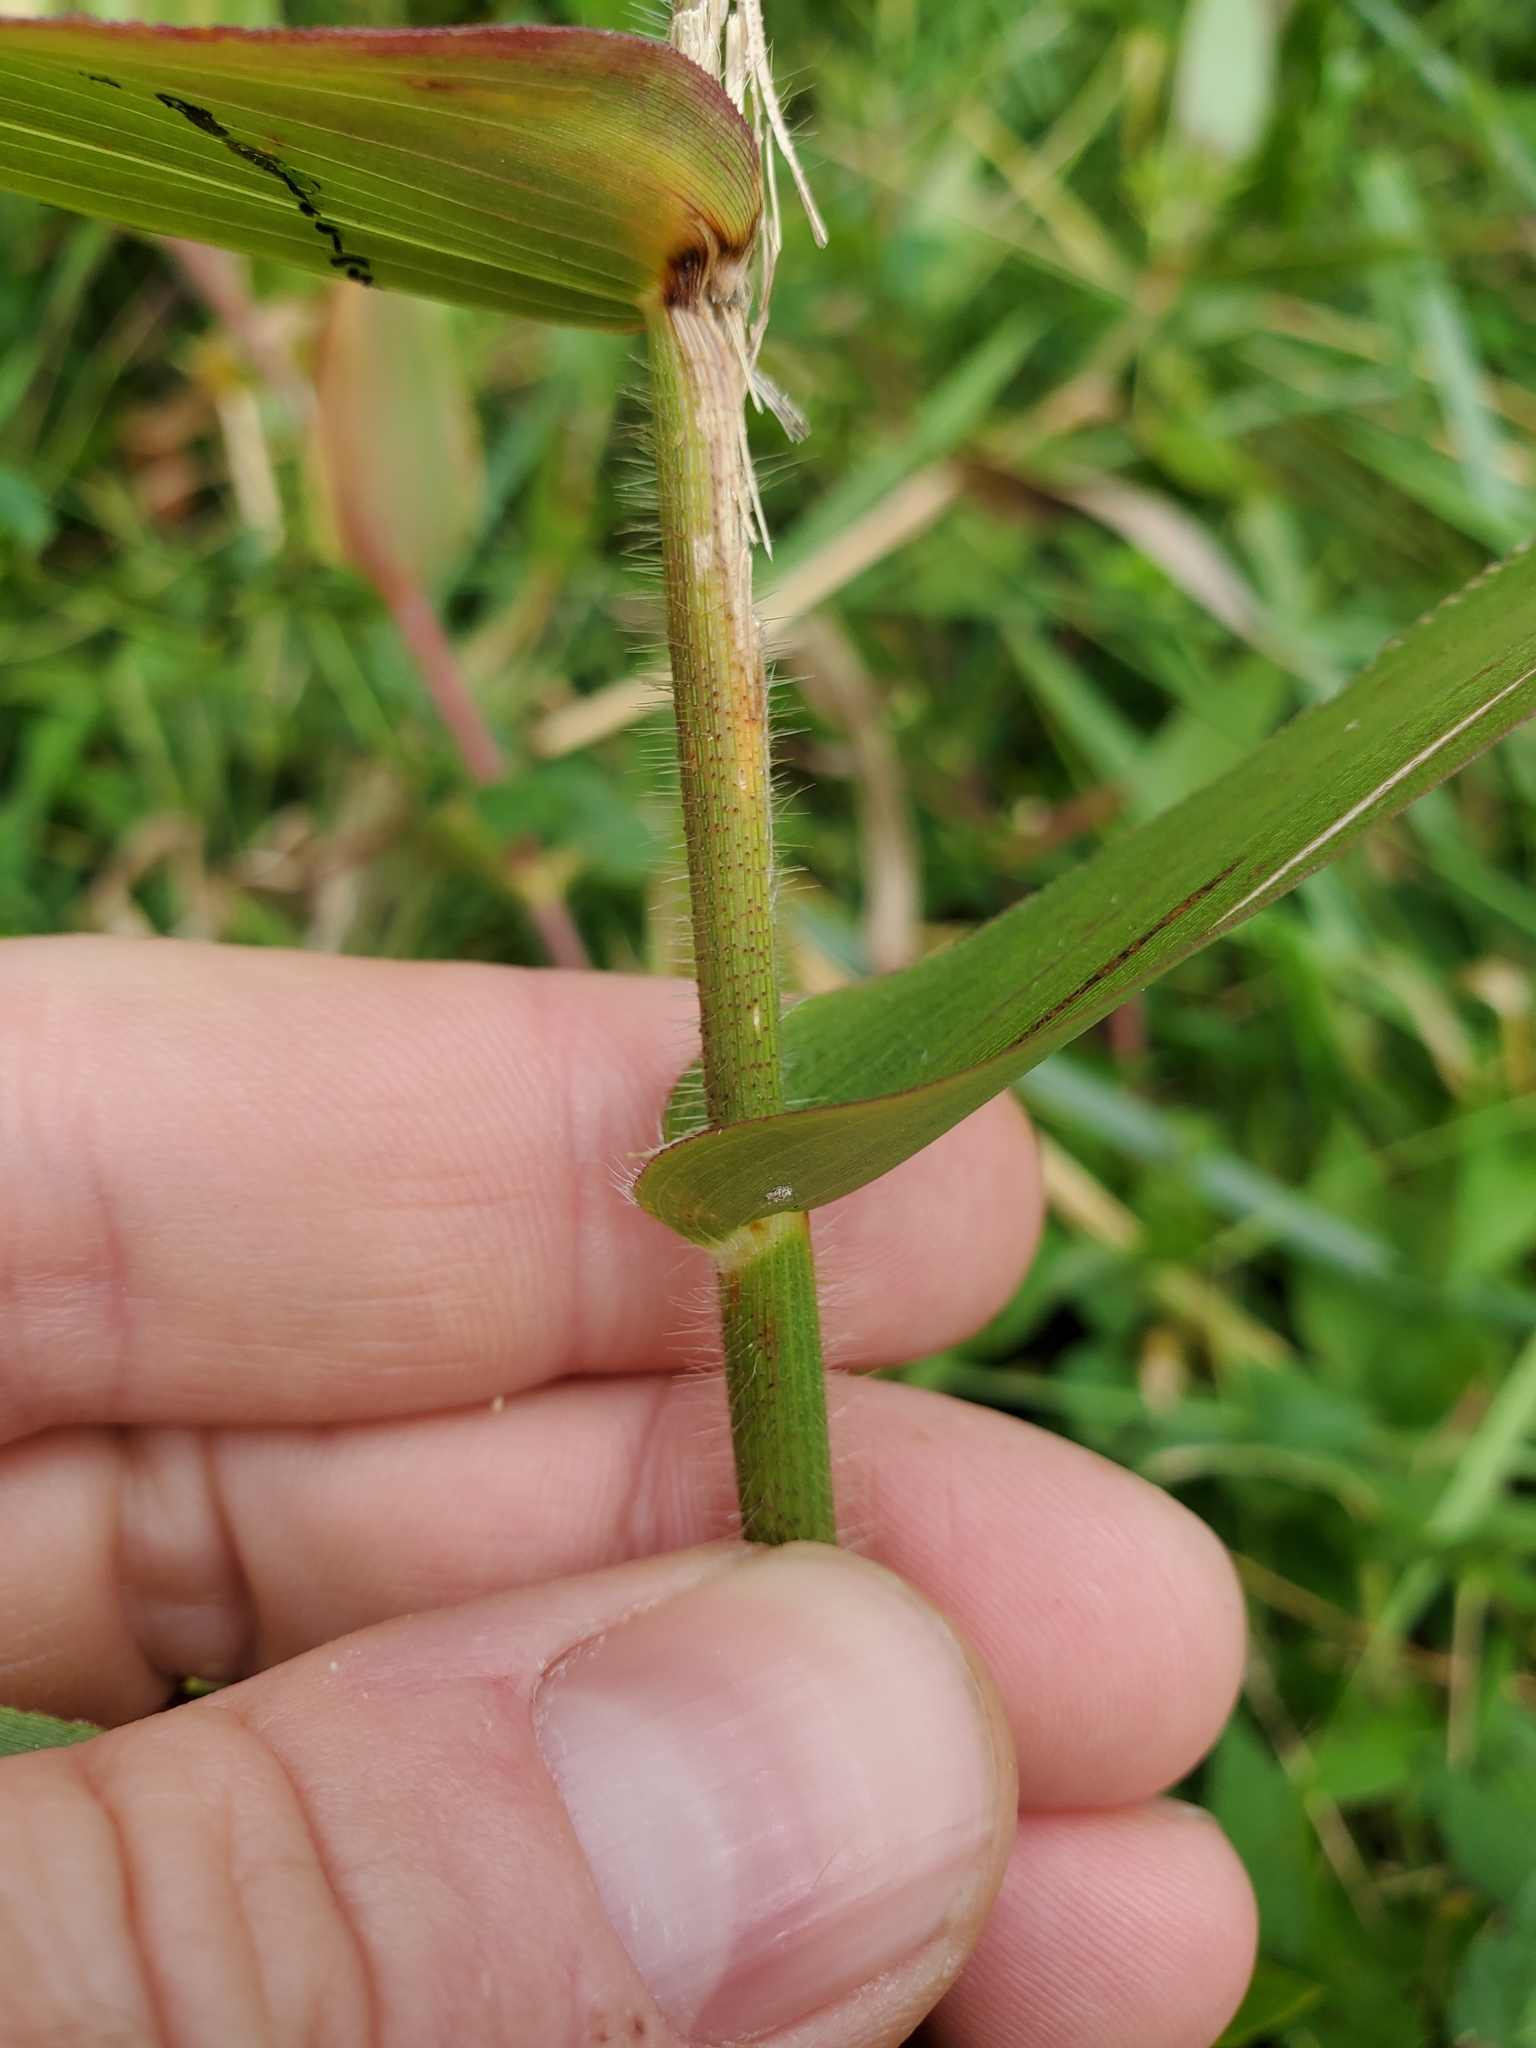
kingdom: Plantae
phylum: Tracheophyta
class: Liliopsida
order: Poales
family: Poaceae
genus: Dichanthelium
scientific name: Dichanthelium clandestinum
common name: Deer-tongue grass
